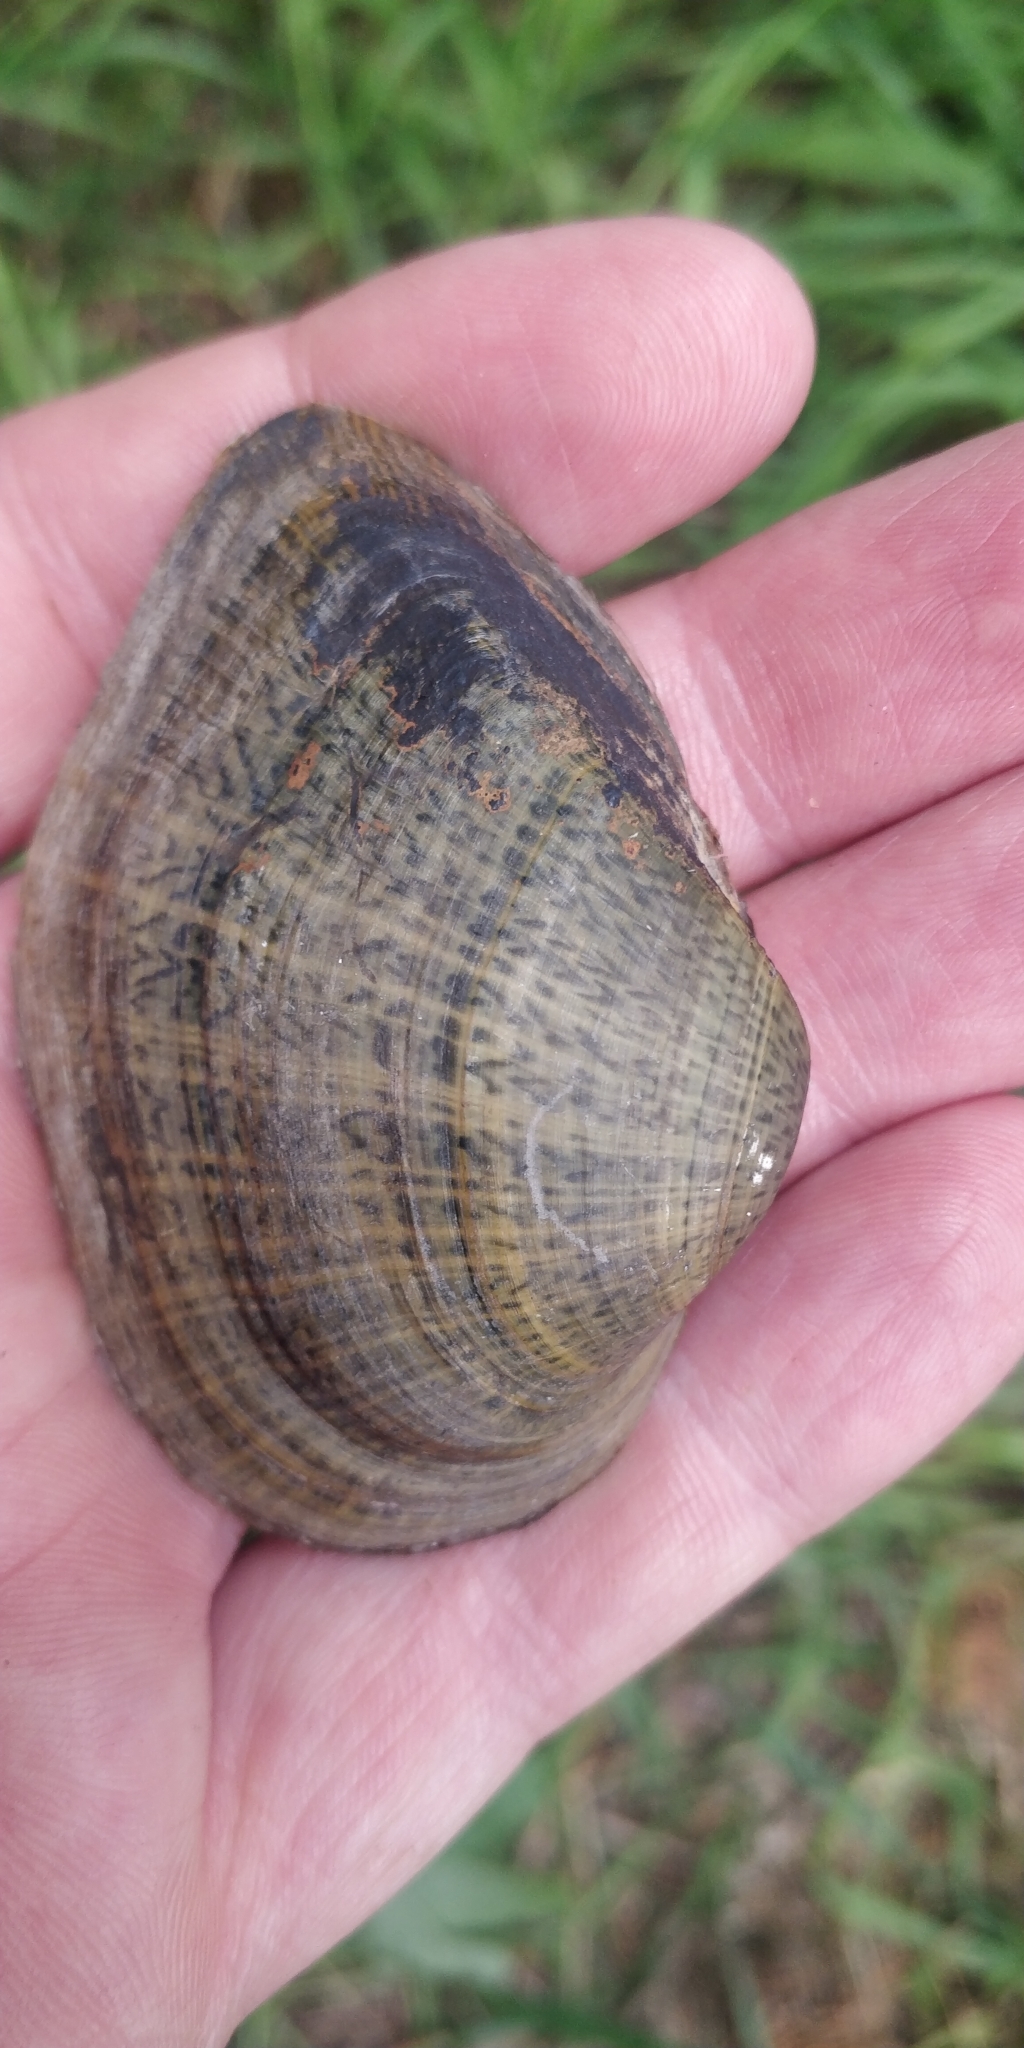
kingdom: Animalia
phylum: Mollusca
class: Bivalvia
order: Unionida
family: Unionidae
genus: Truncilla
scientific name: Truncilla truncata
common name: Deertoe
